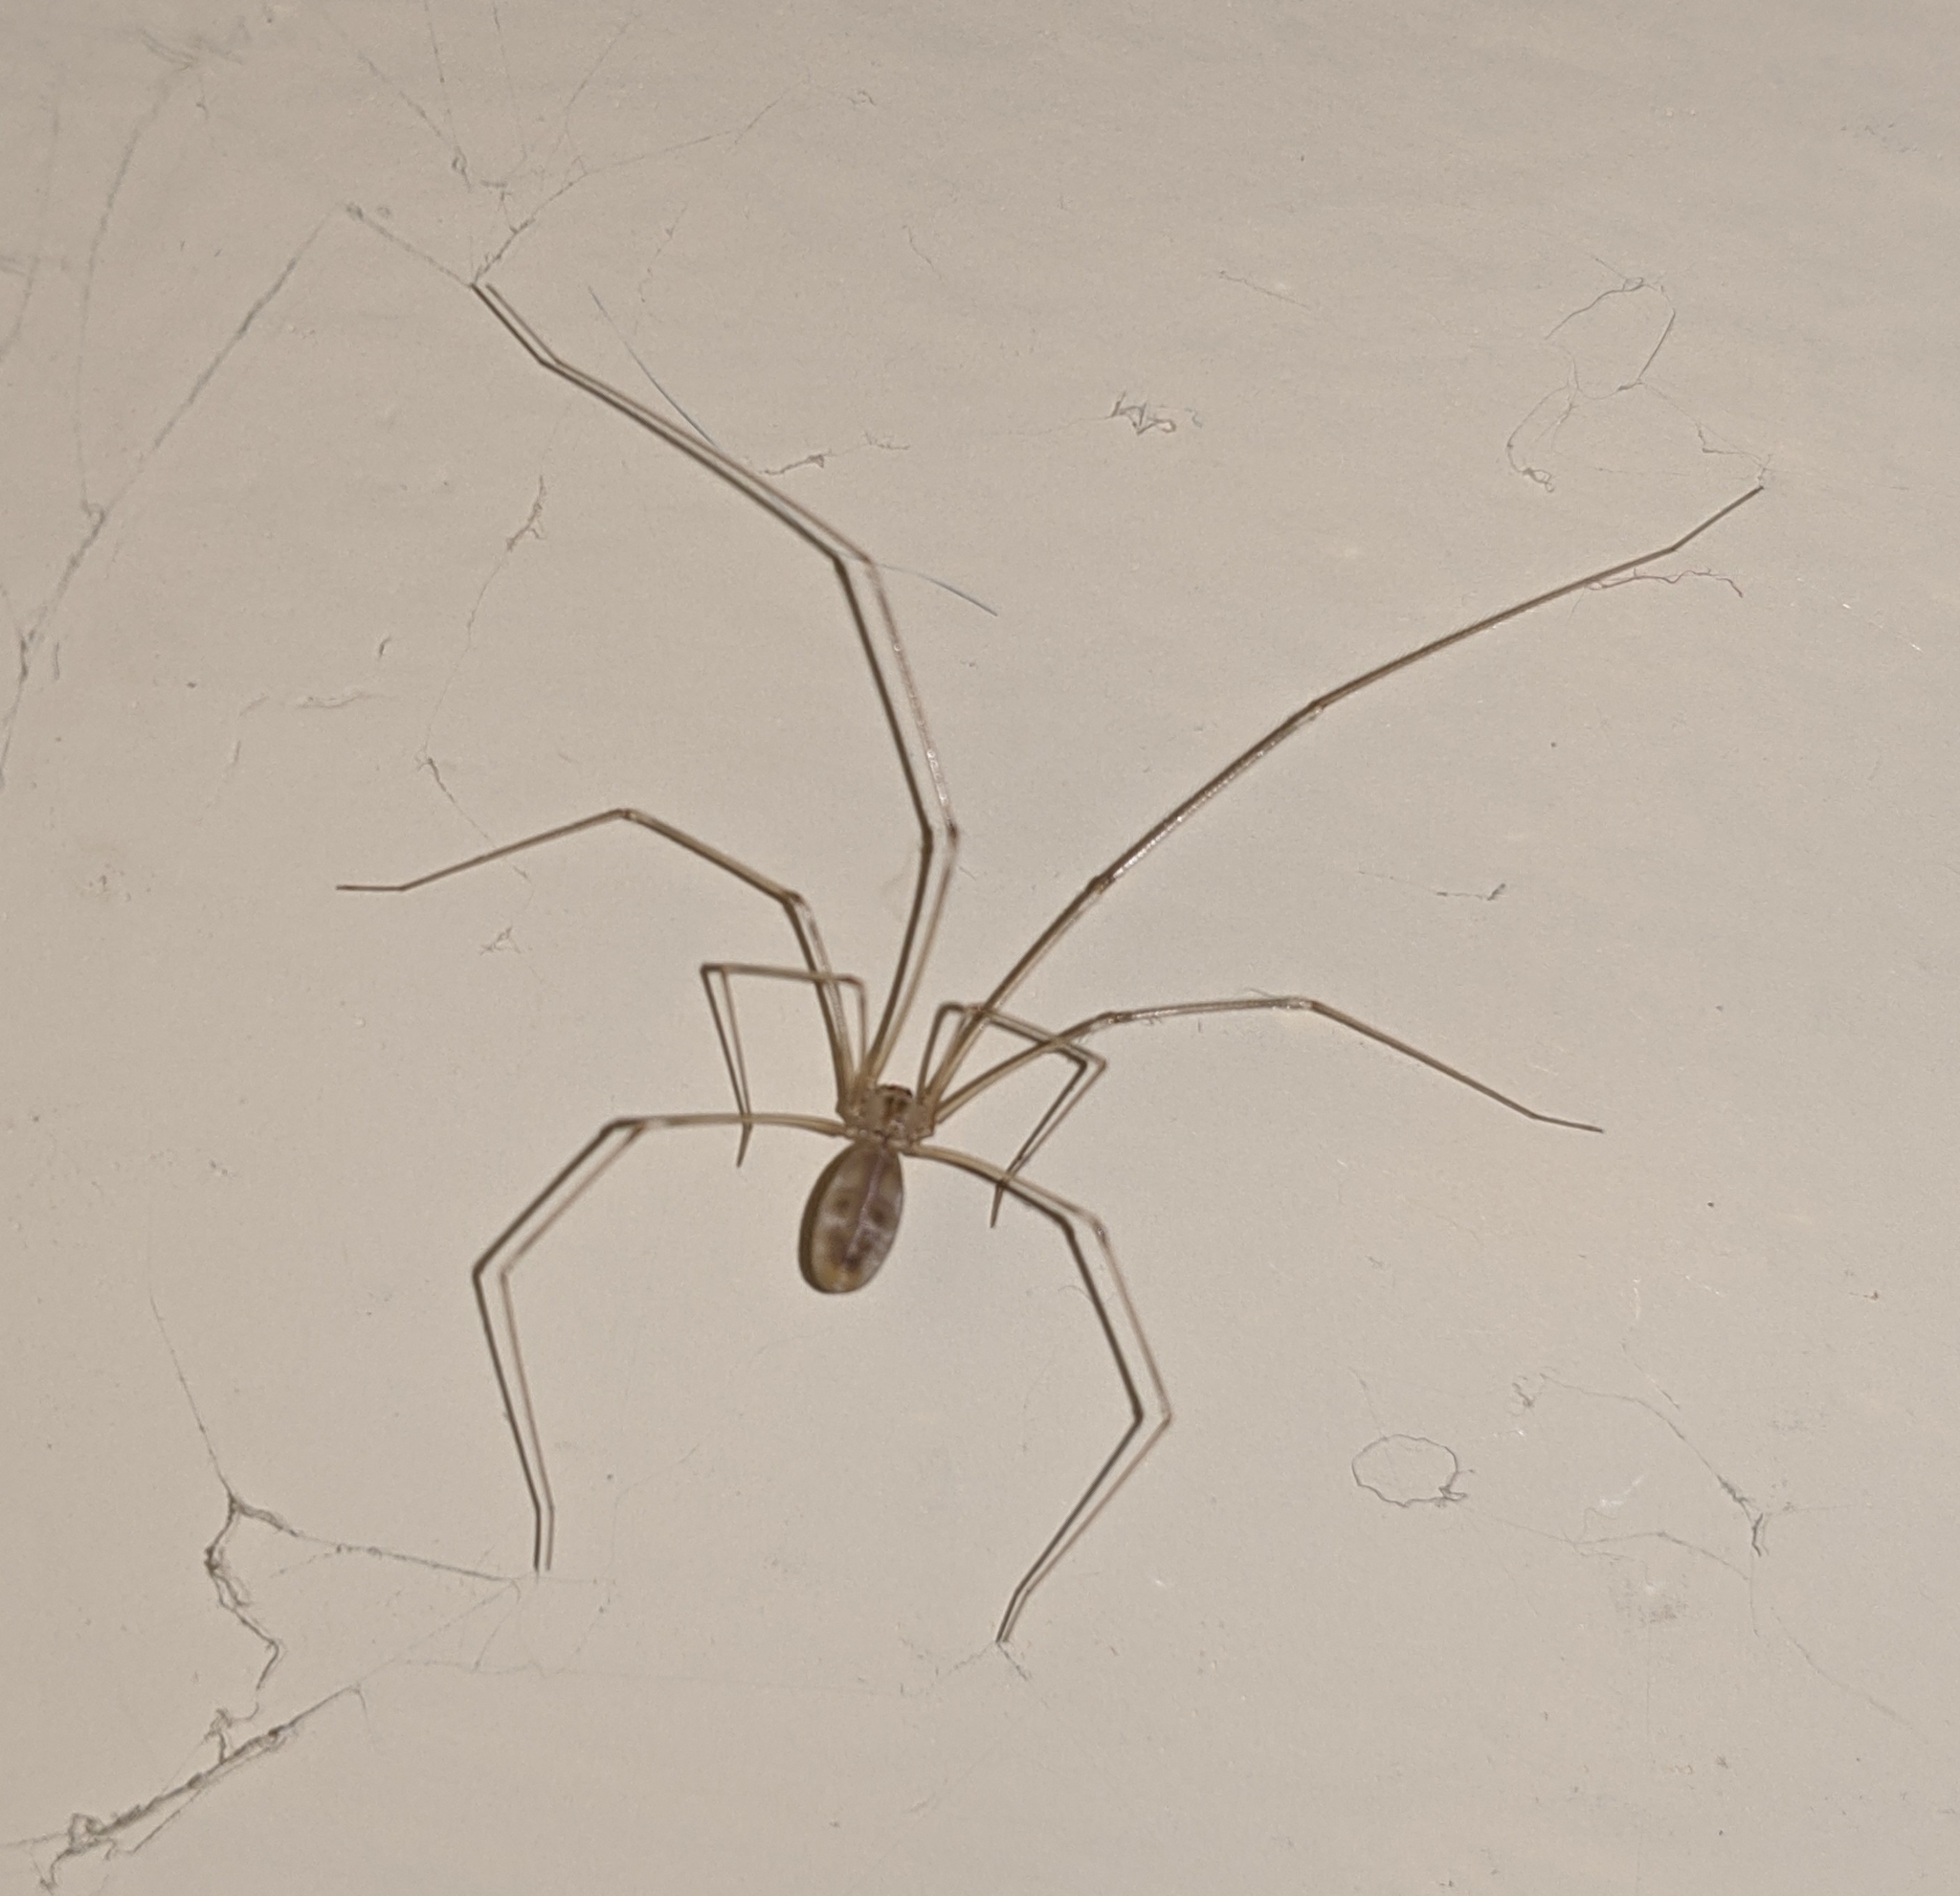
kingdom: Animalia
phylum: Arthropoda
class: Arachnida
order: Araneae
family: Pholcidae
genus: Pholcus
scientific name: Pholcus phalangioides
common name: Longbodied cellar spider
